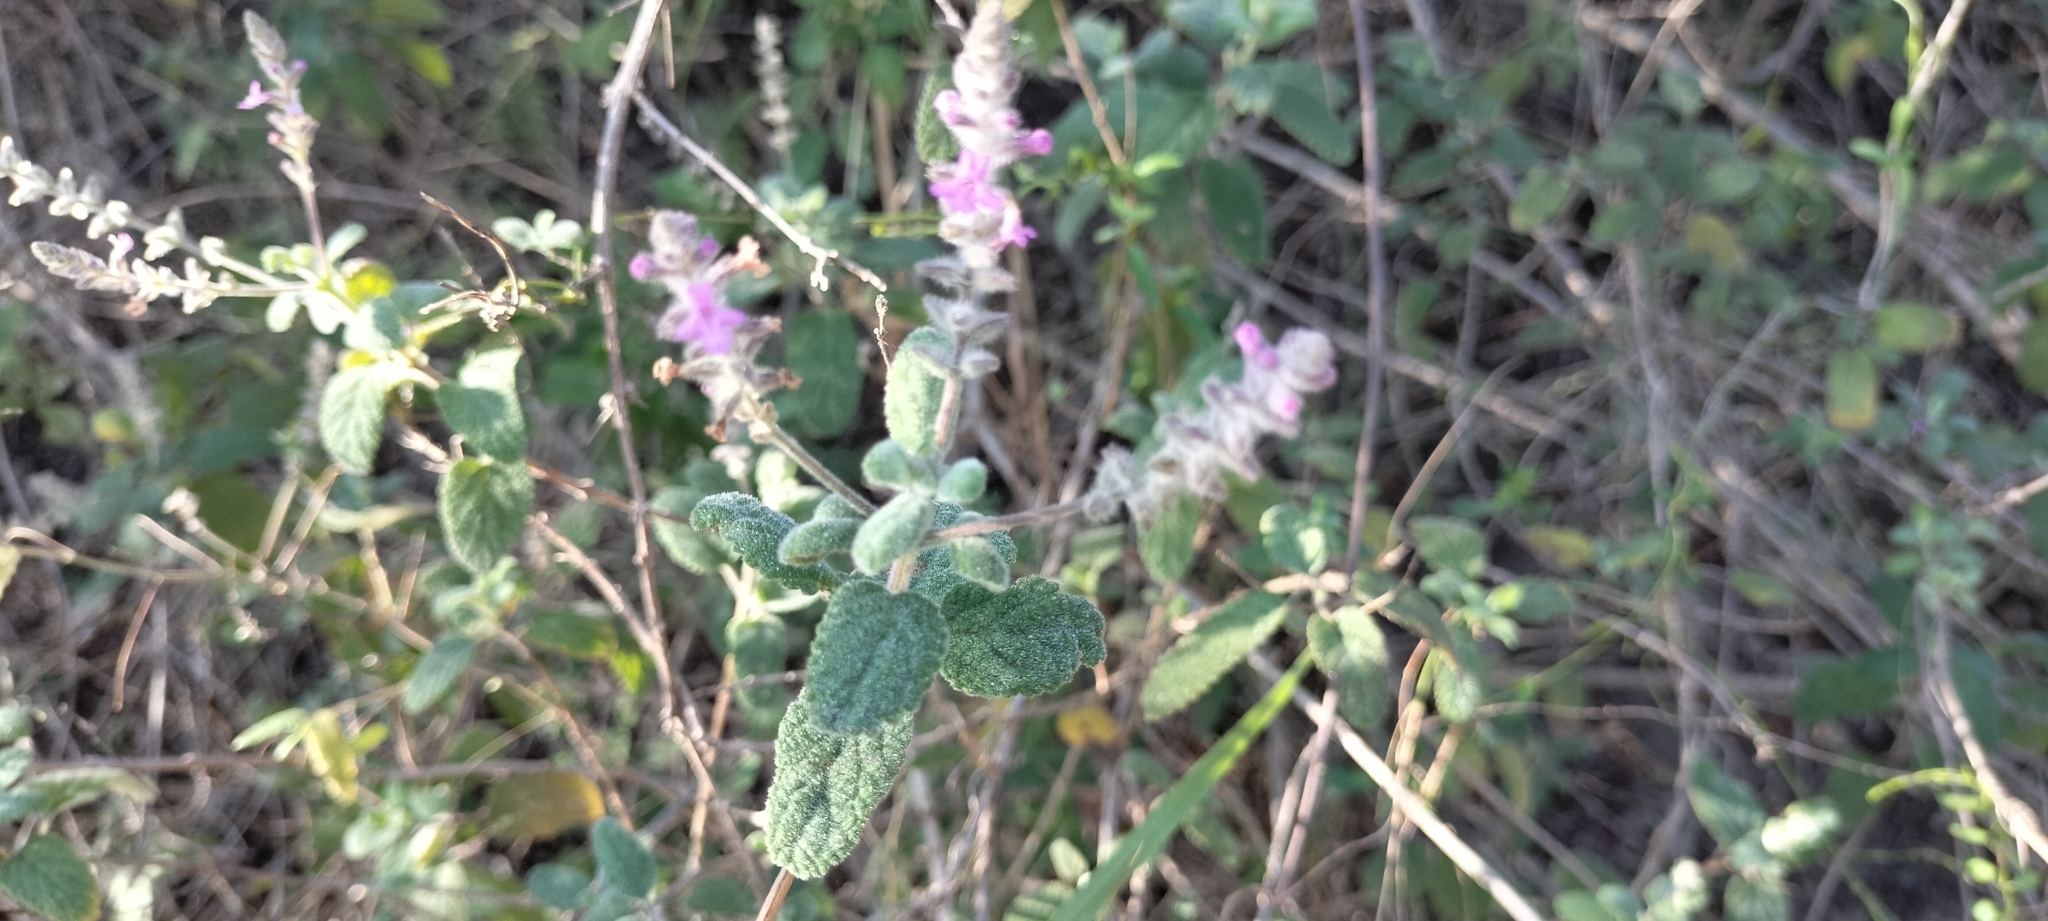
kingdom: Plantae
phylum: Tracheophyta
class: Magnoliopsida
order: Lamiales
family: Verbenaceae
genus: Aloysia
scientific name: Aloysia macrostachya
